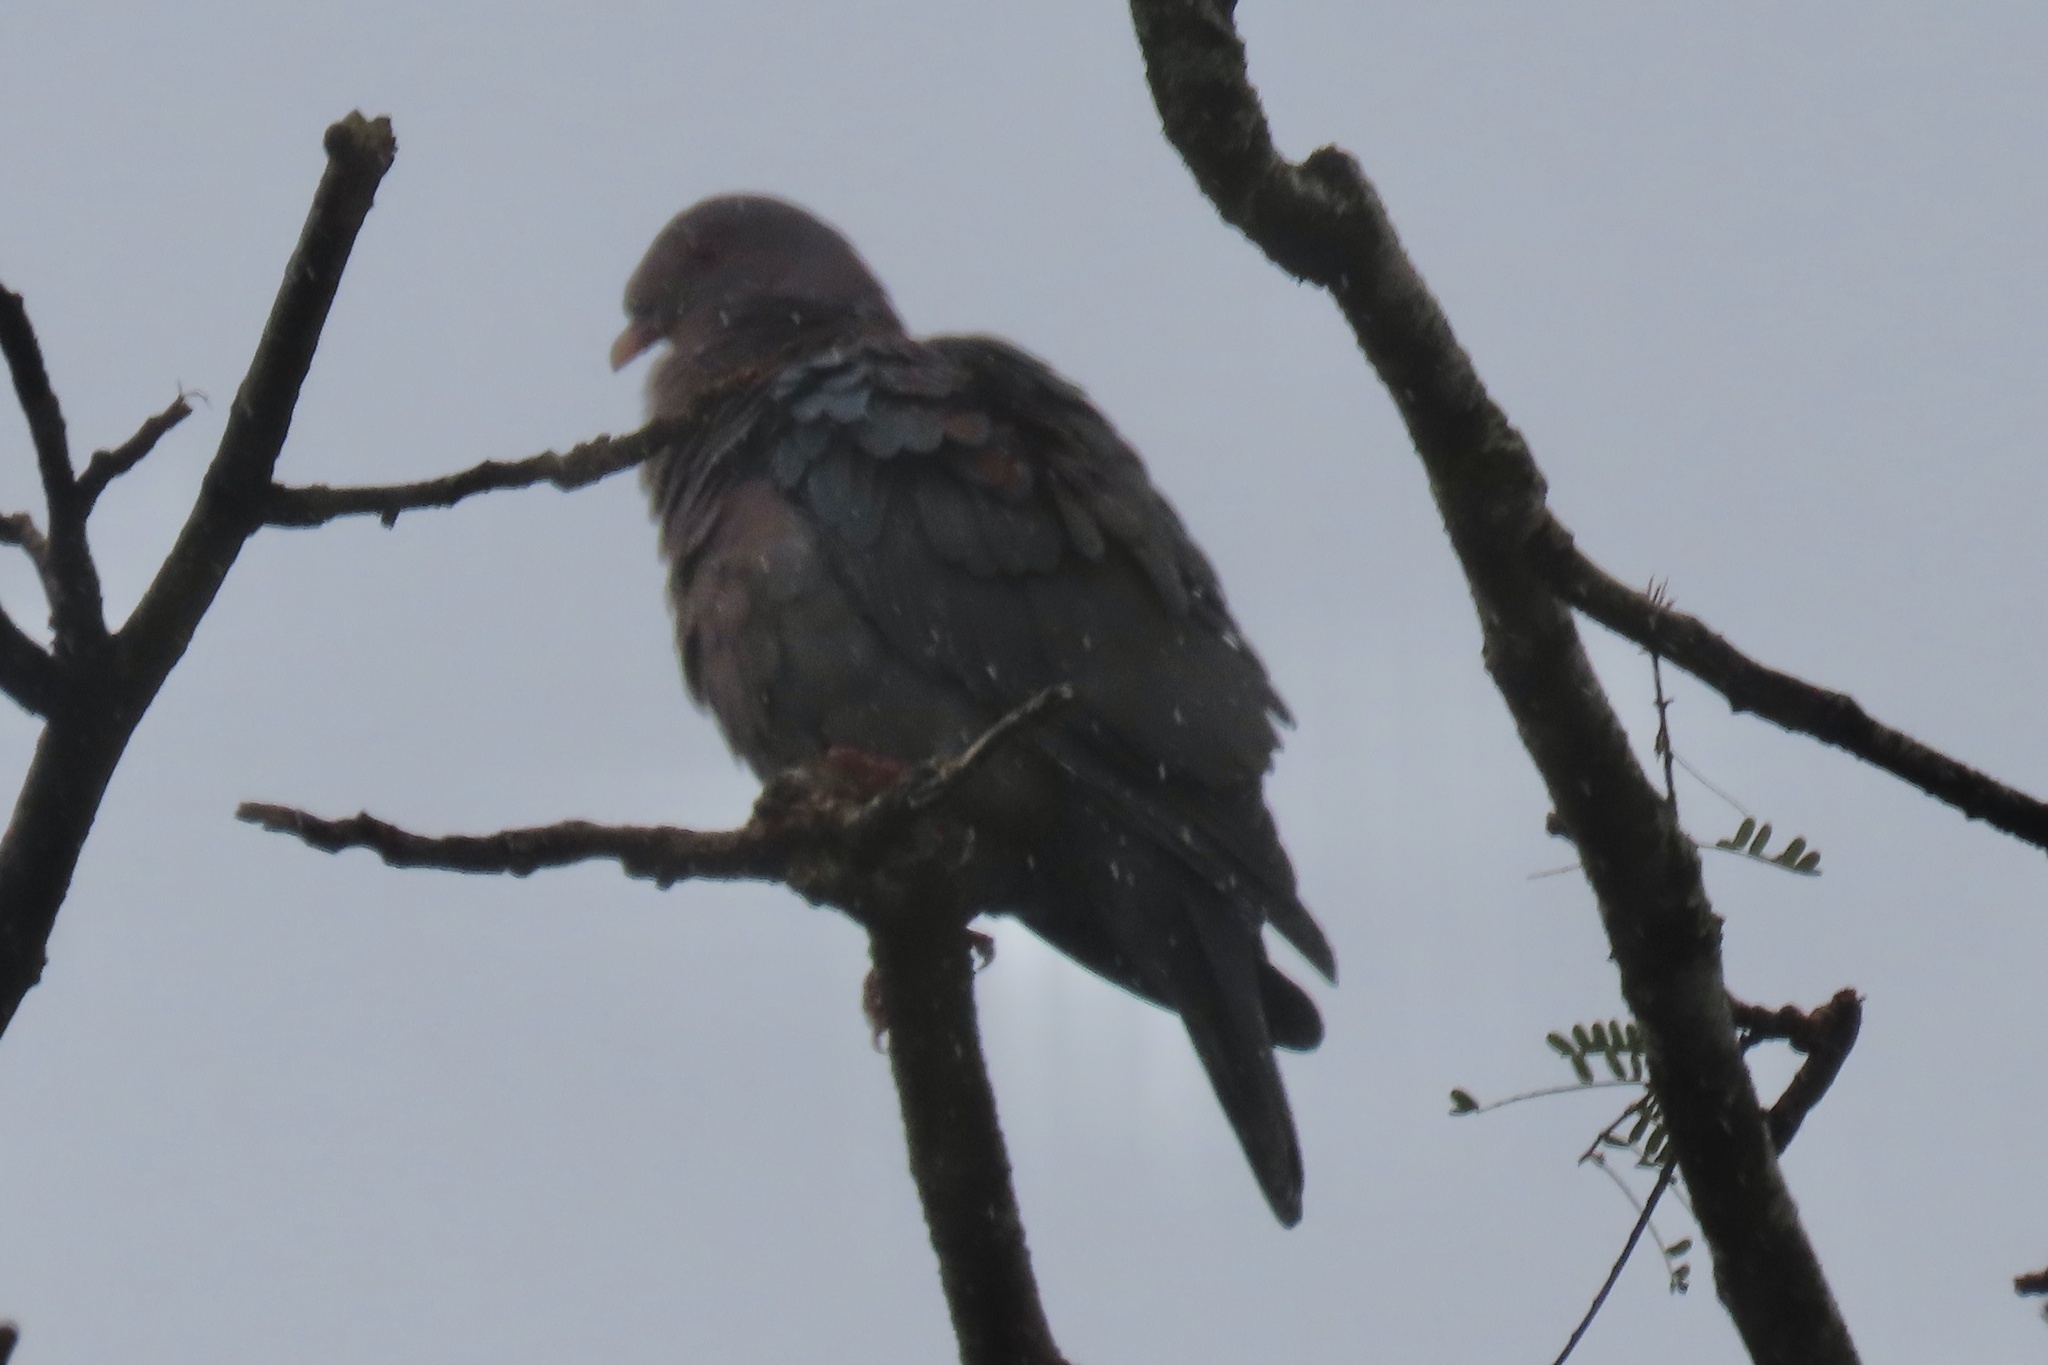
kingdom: Animalia
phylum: Chordata
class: Aves
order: Columbiformes
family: Columbidae
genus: Patagioenas
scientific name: Patagioenas flavirostris
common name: Red-billed pigeon
